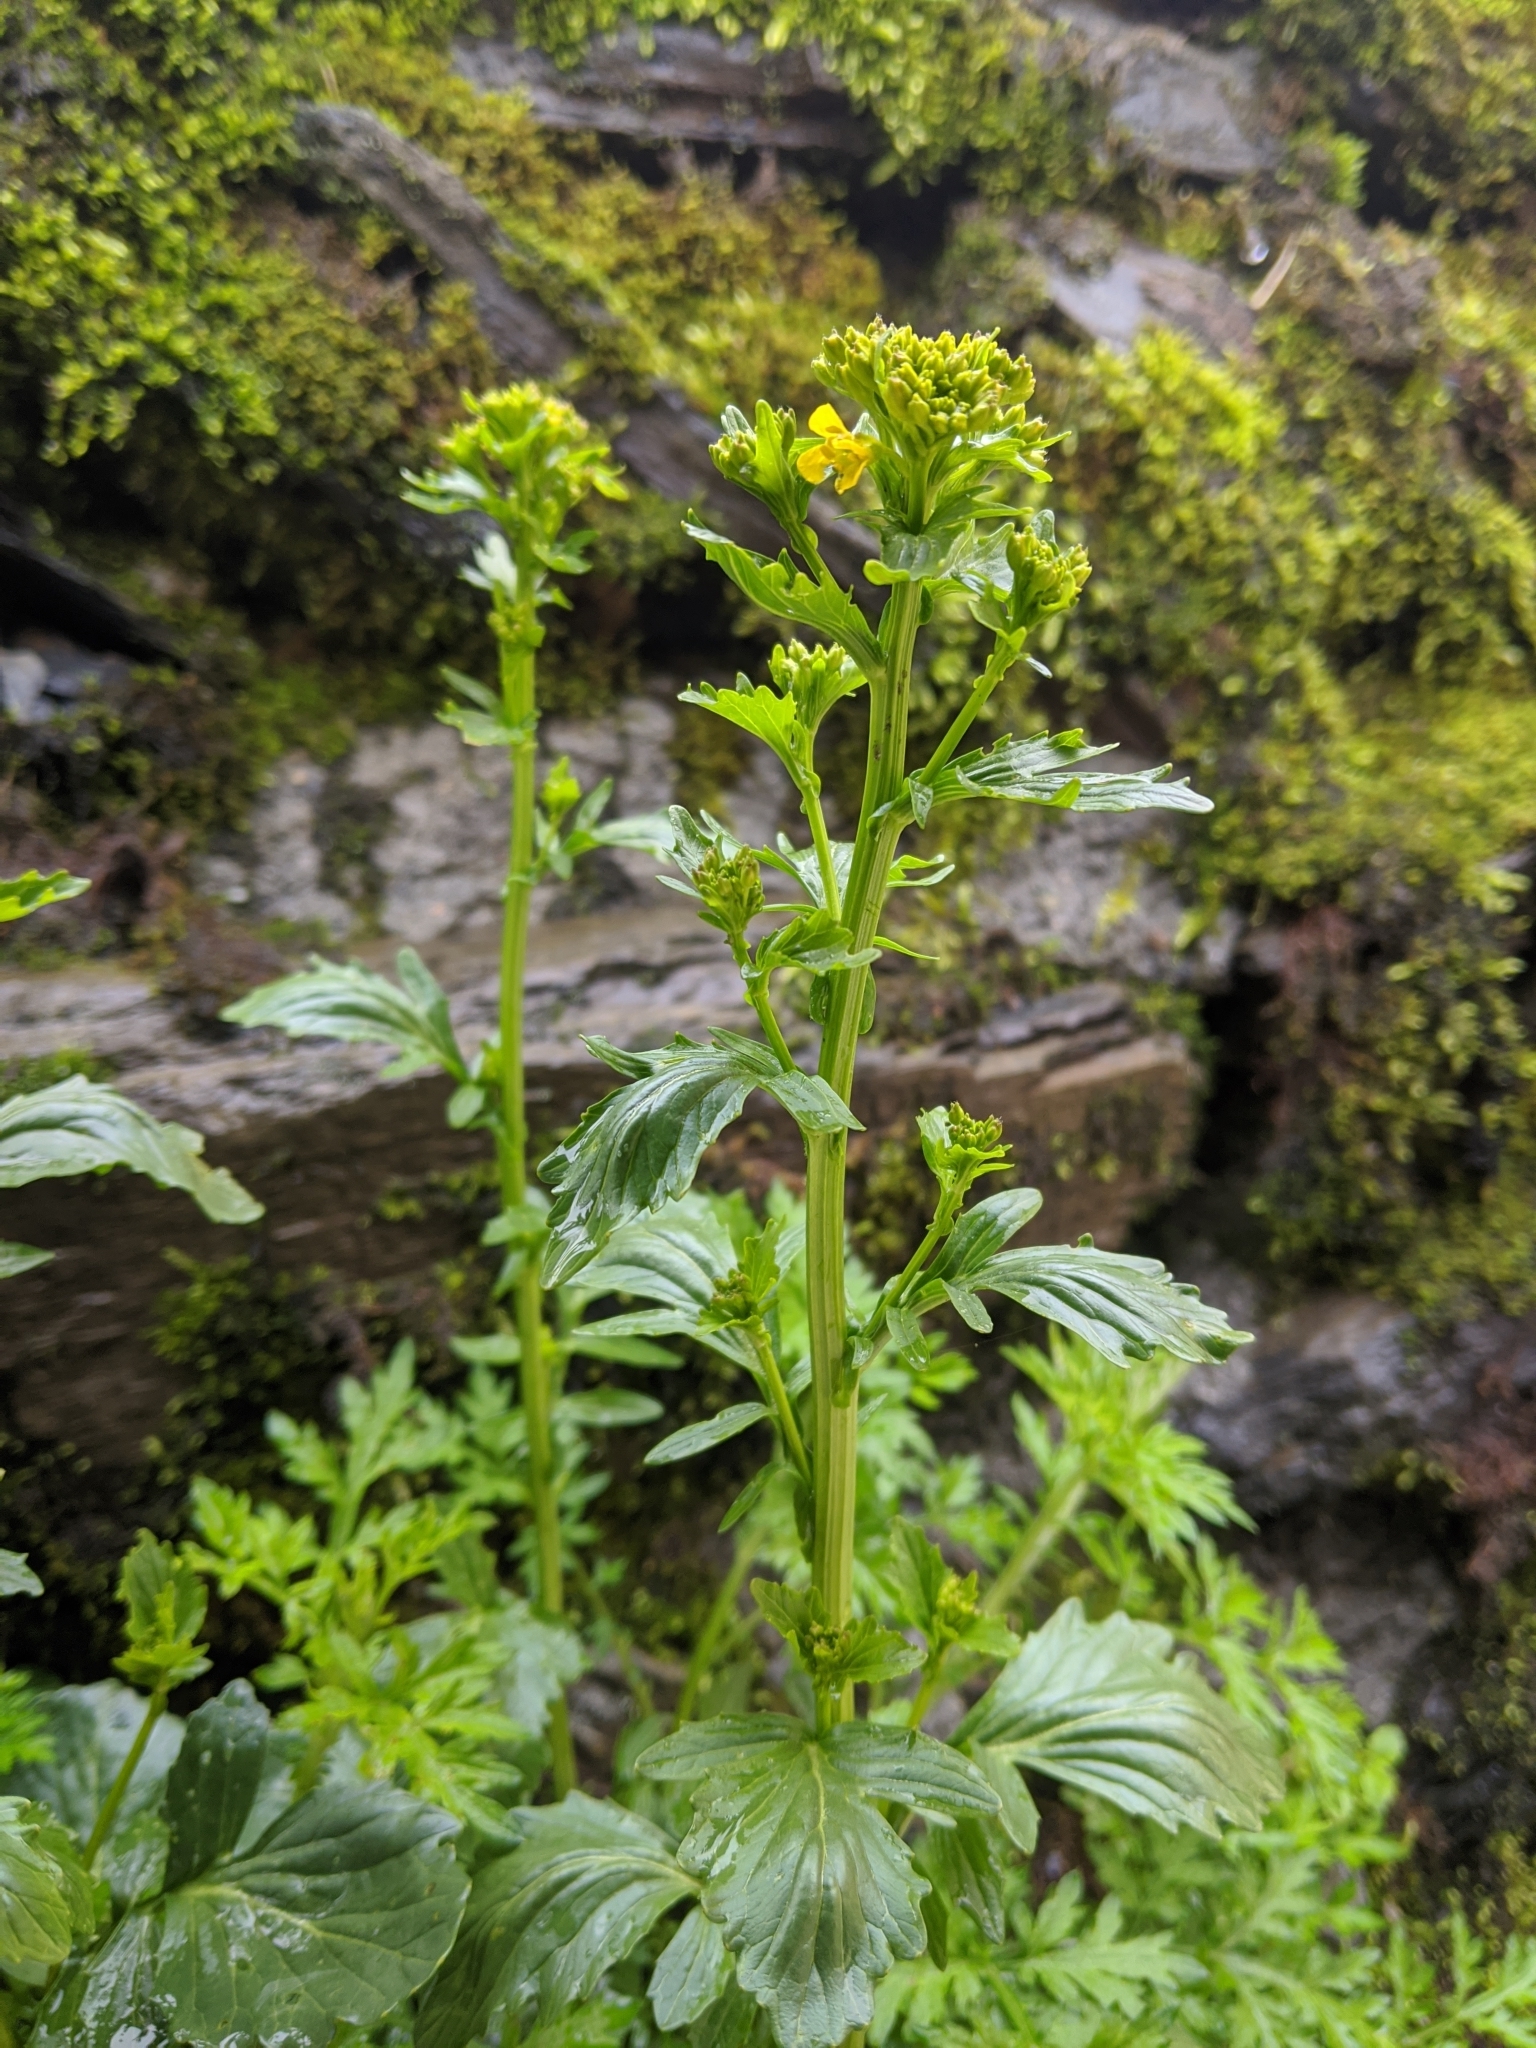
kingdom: Plantae
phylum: Tracheophyta
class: Magnoliopsida
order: Brassicales
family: Brassicaceae
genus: Barbarea
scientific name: Barbarea orthoceras
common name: American wintercress
